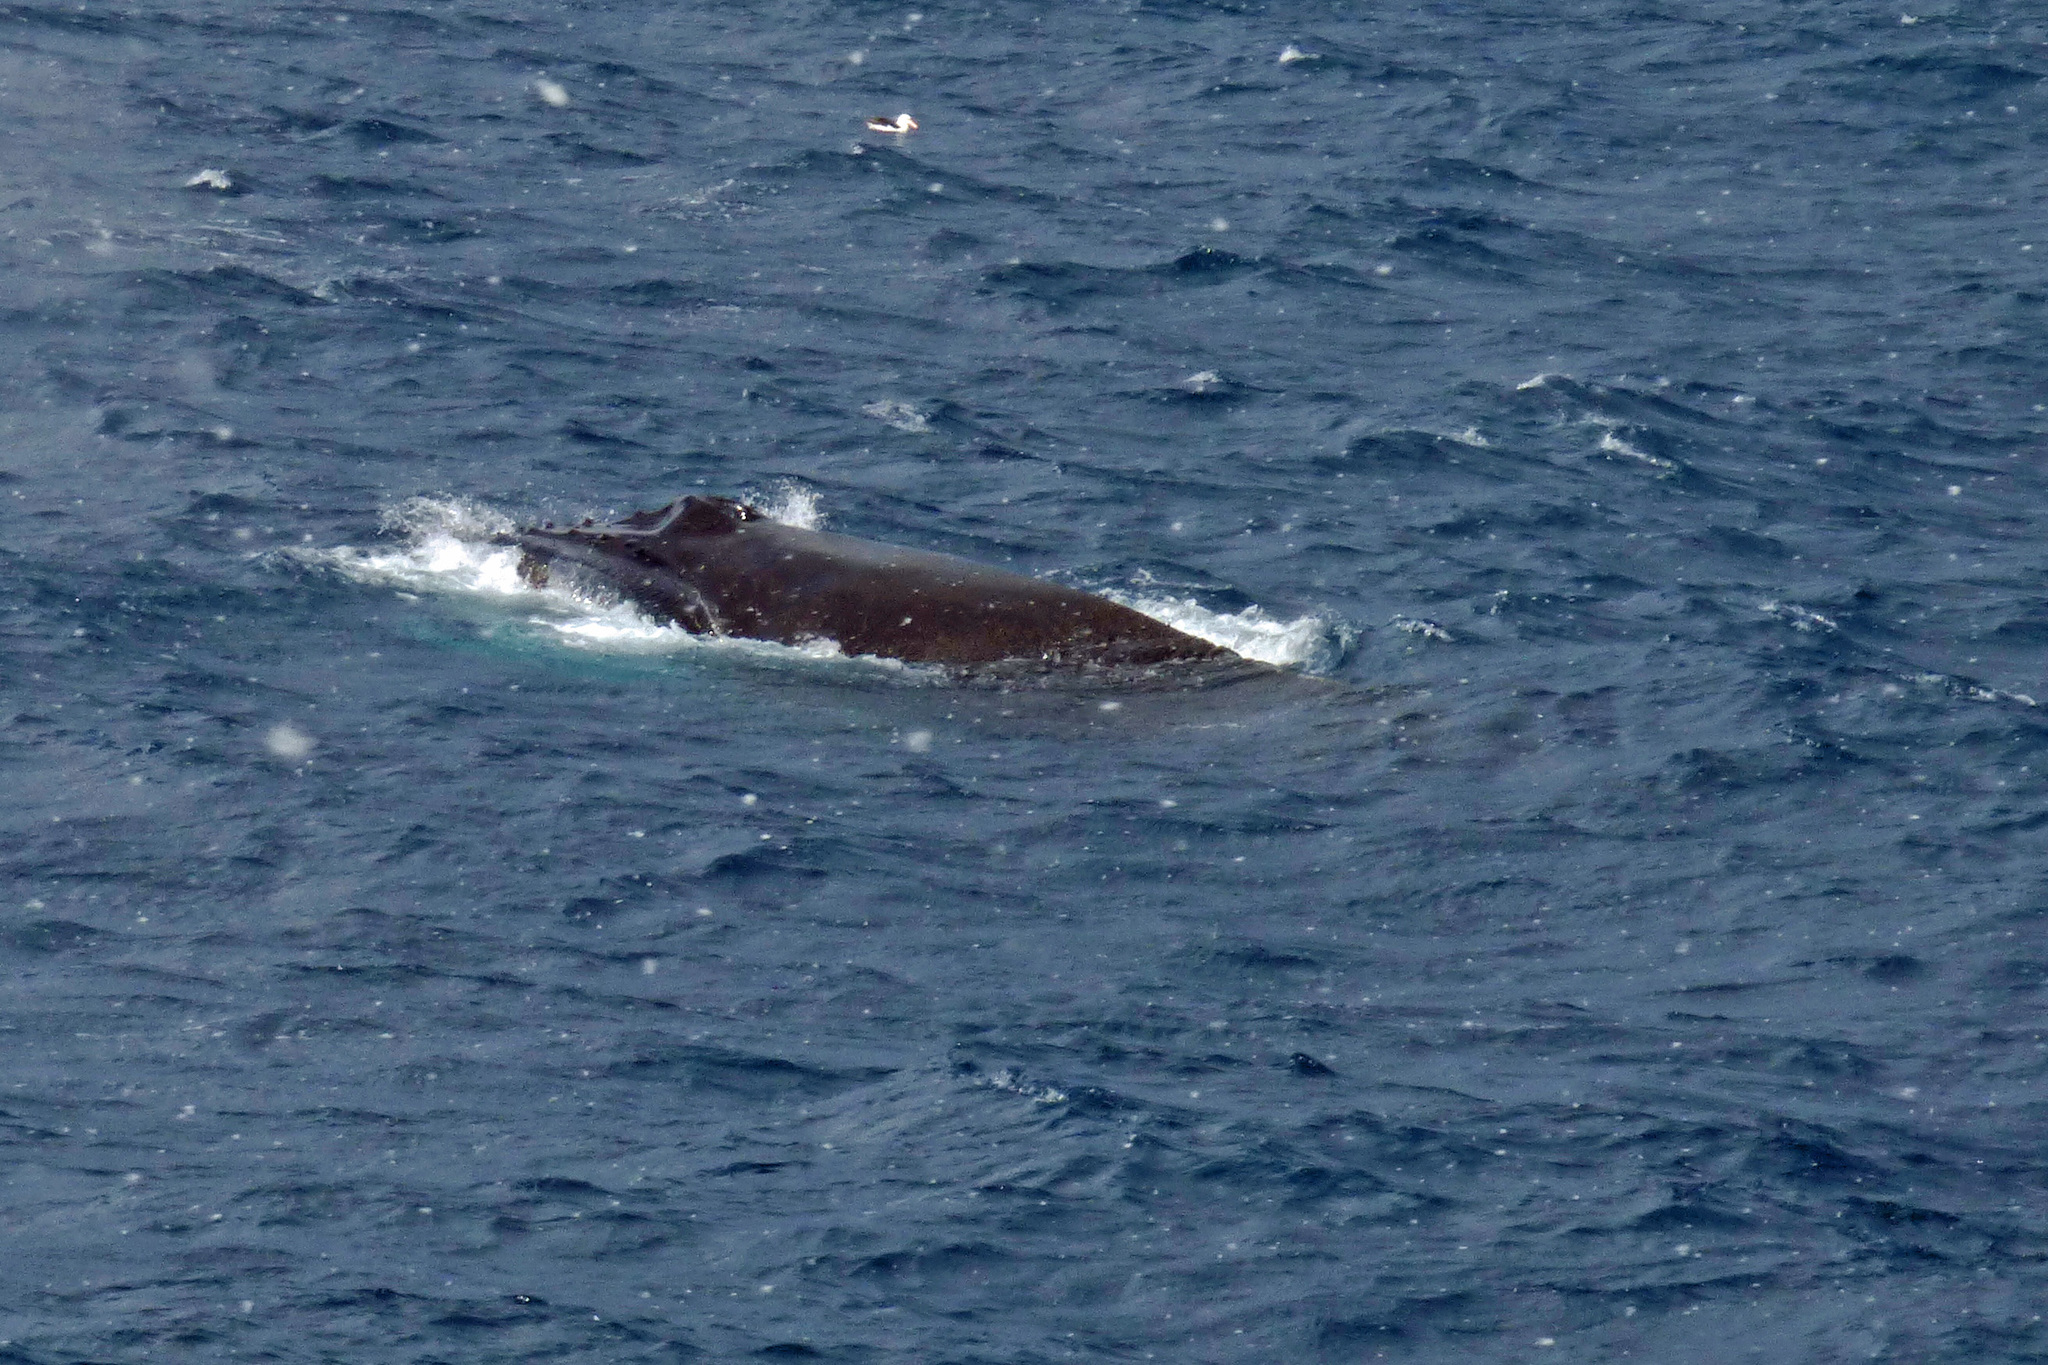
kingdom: Animalia
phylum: Chordata
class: Mammalia
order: Cetacea
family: Balaenopteridae
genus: Megaptera
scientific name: Megaptera novaeangliae
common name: Humpback whale
